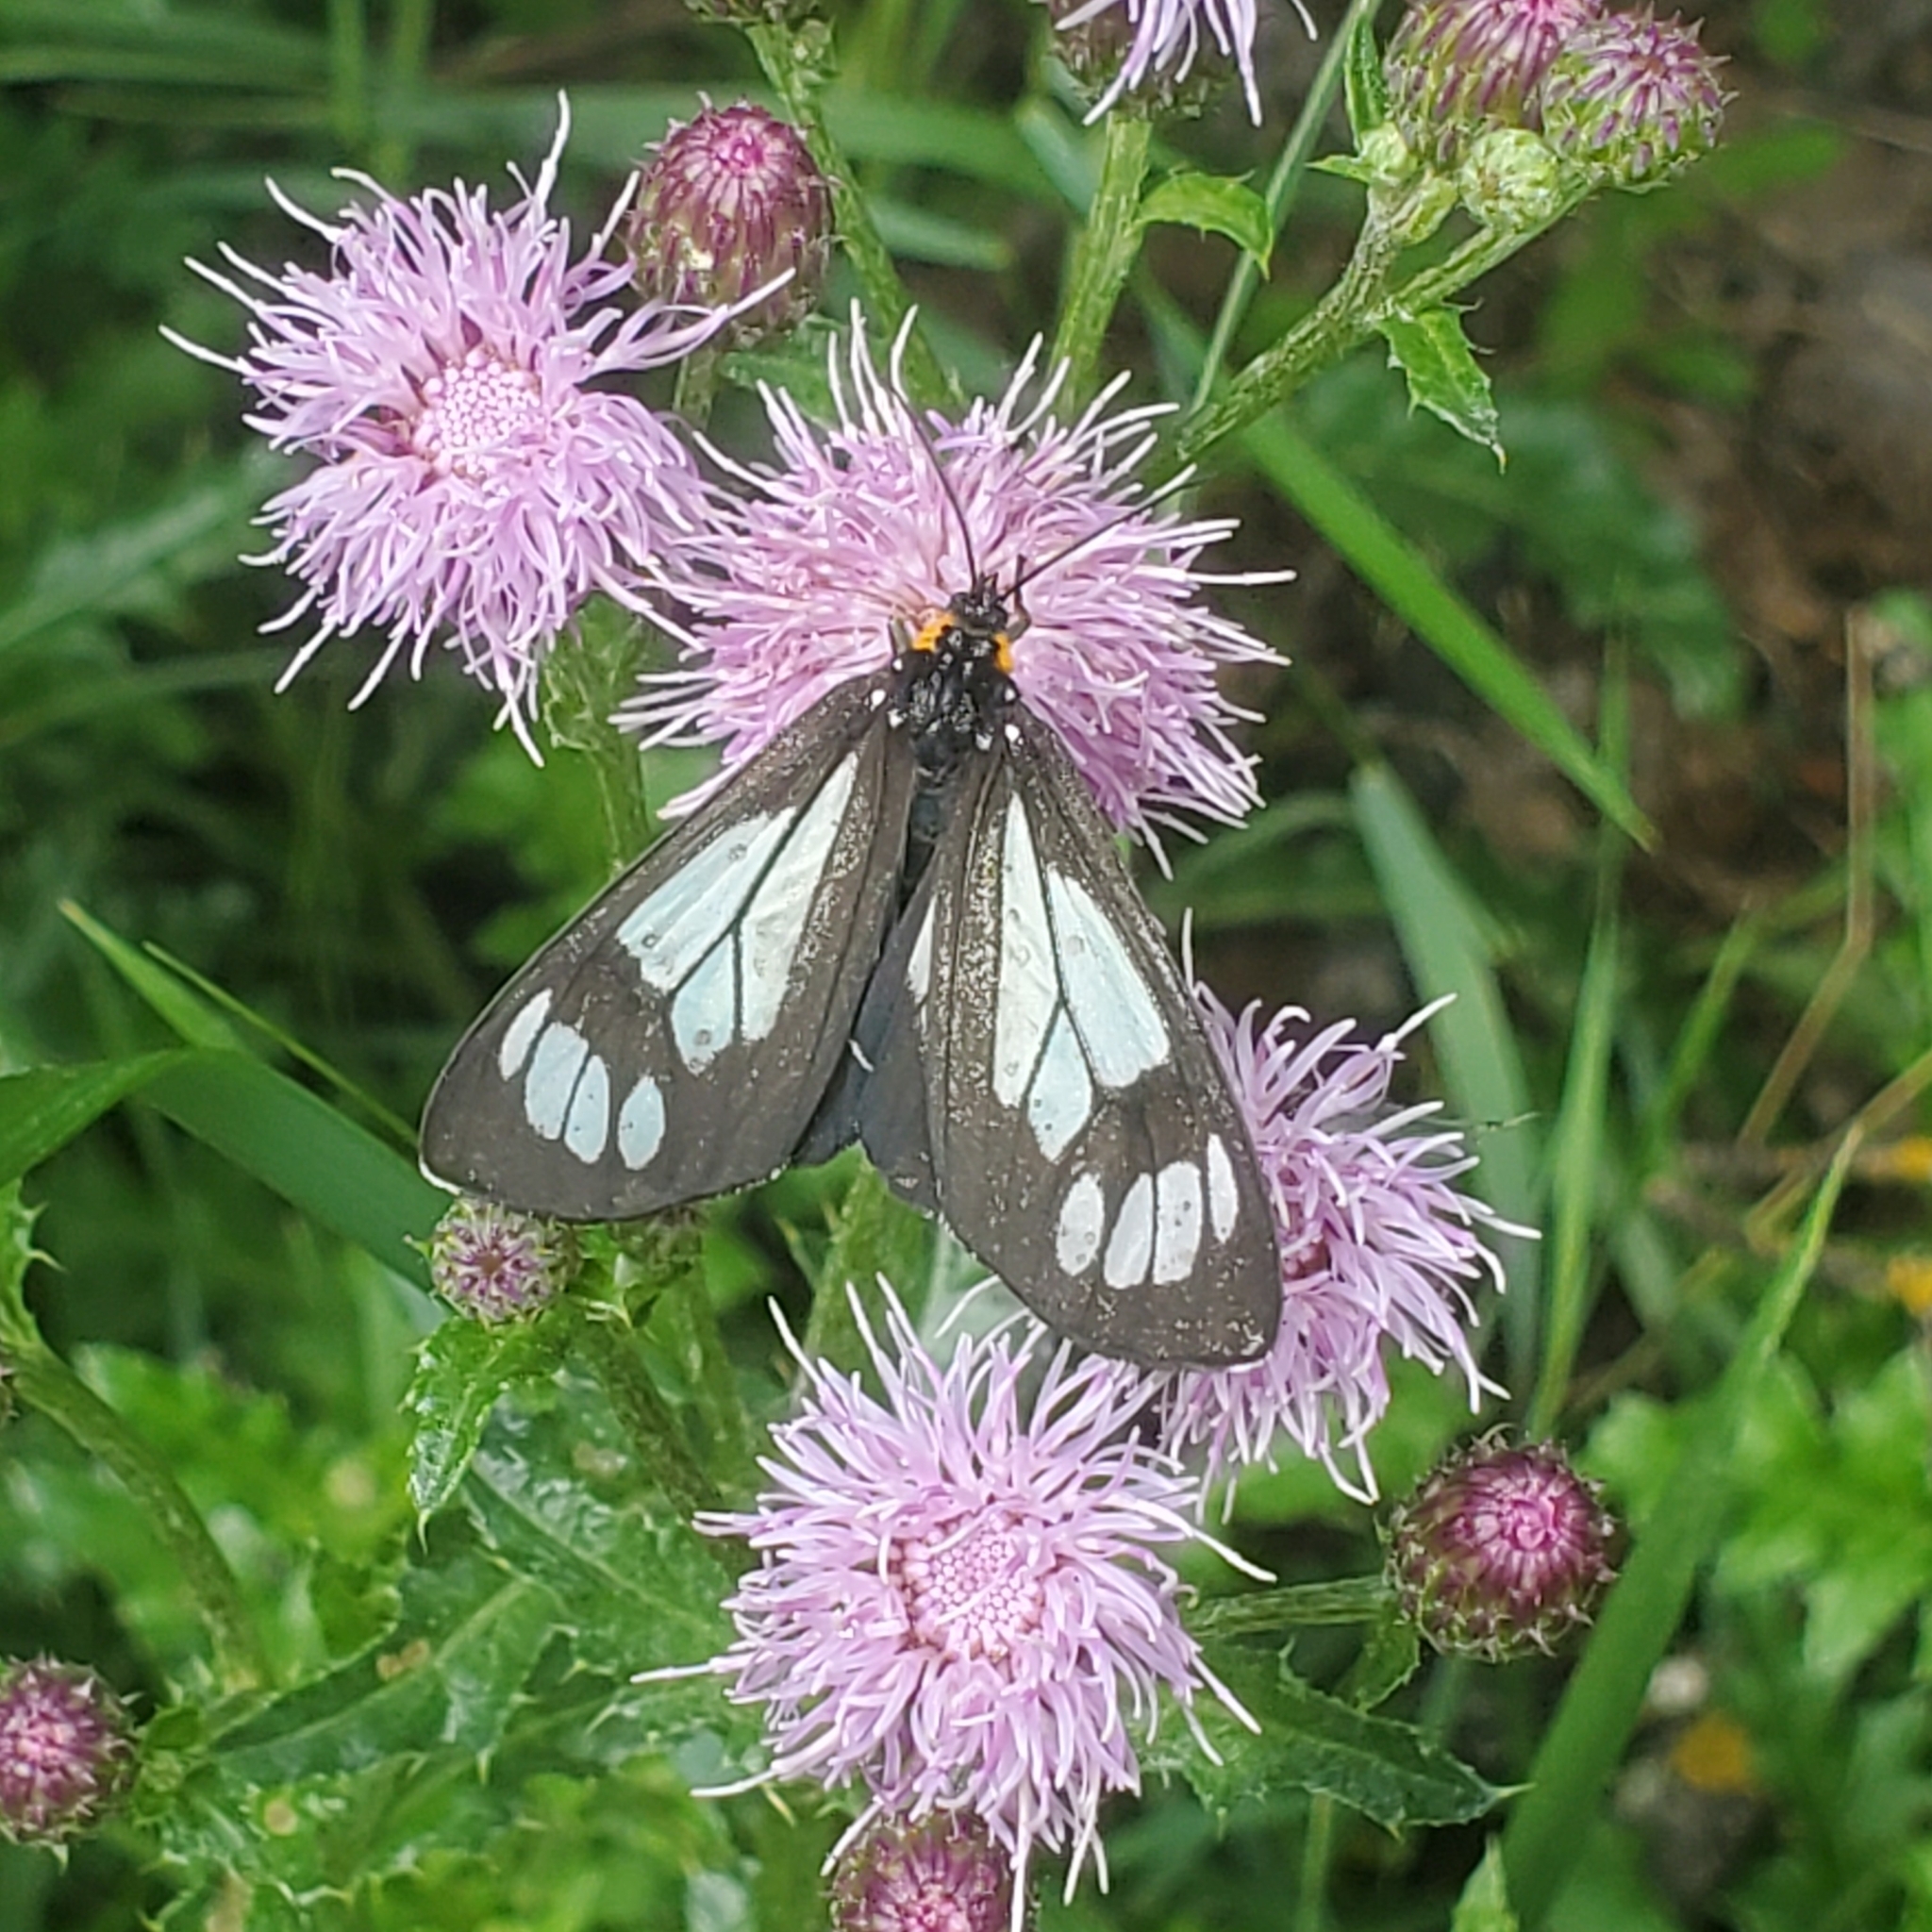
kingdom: Animalia
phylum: Arthropoda
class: Insecta
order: Lepidoptera
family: Erebidae
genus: Gnophaela
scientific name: Gnophaela vermiculata
